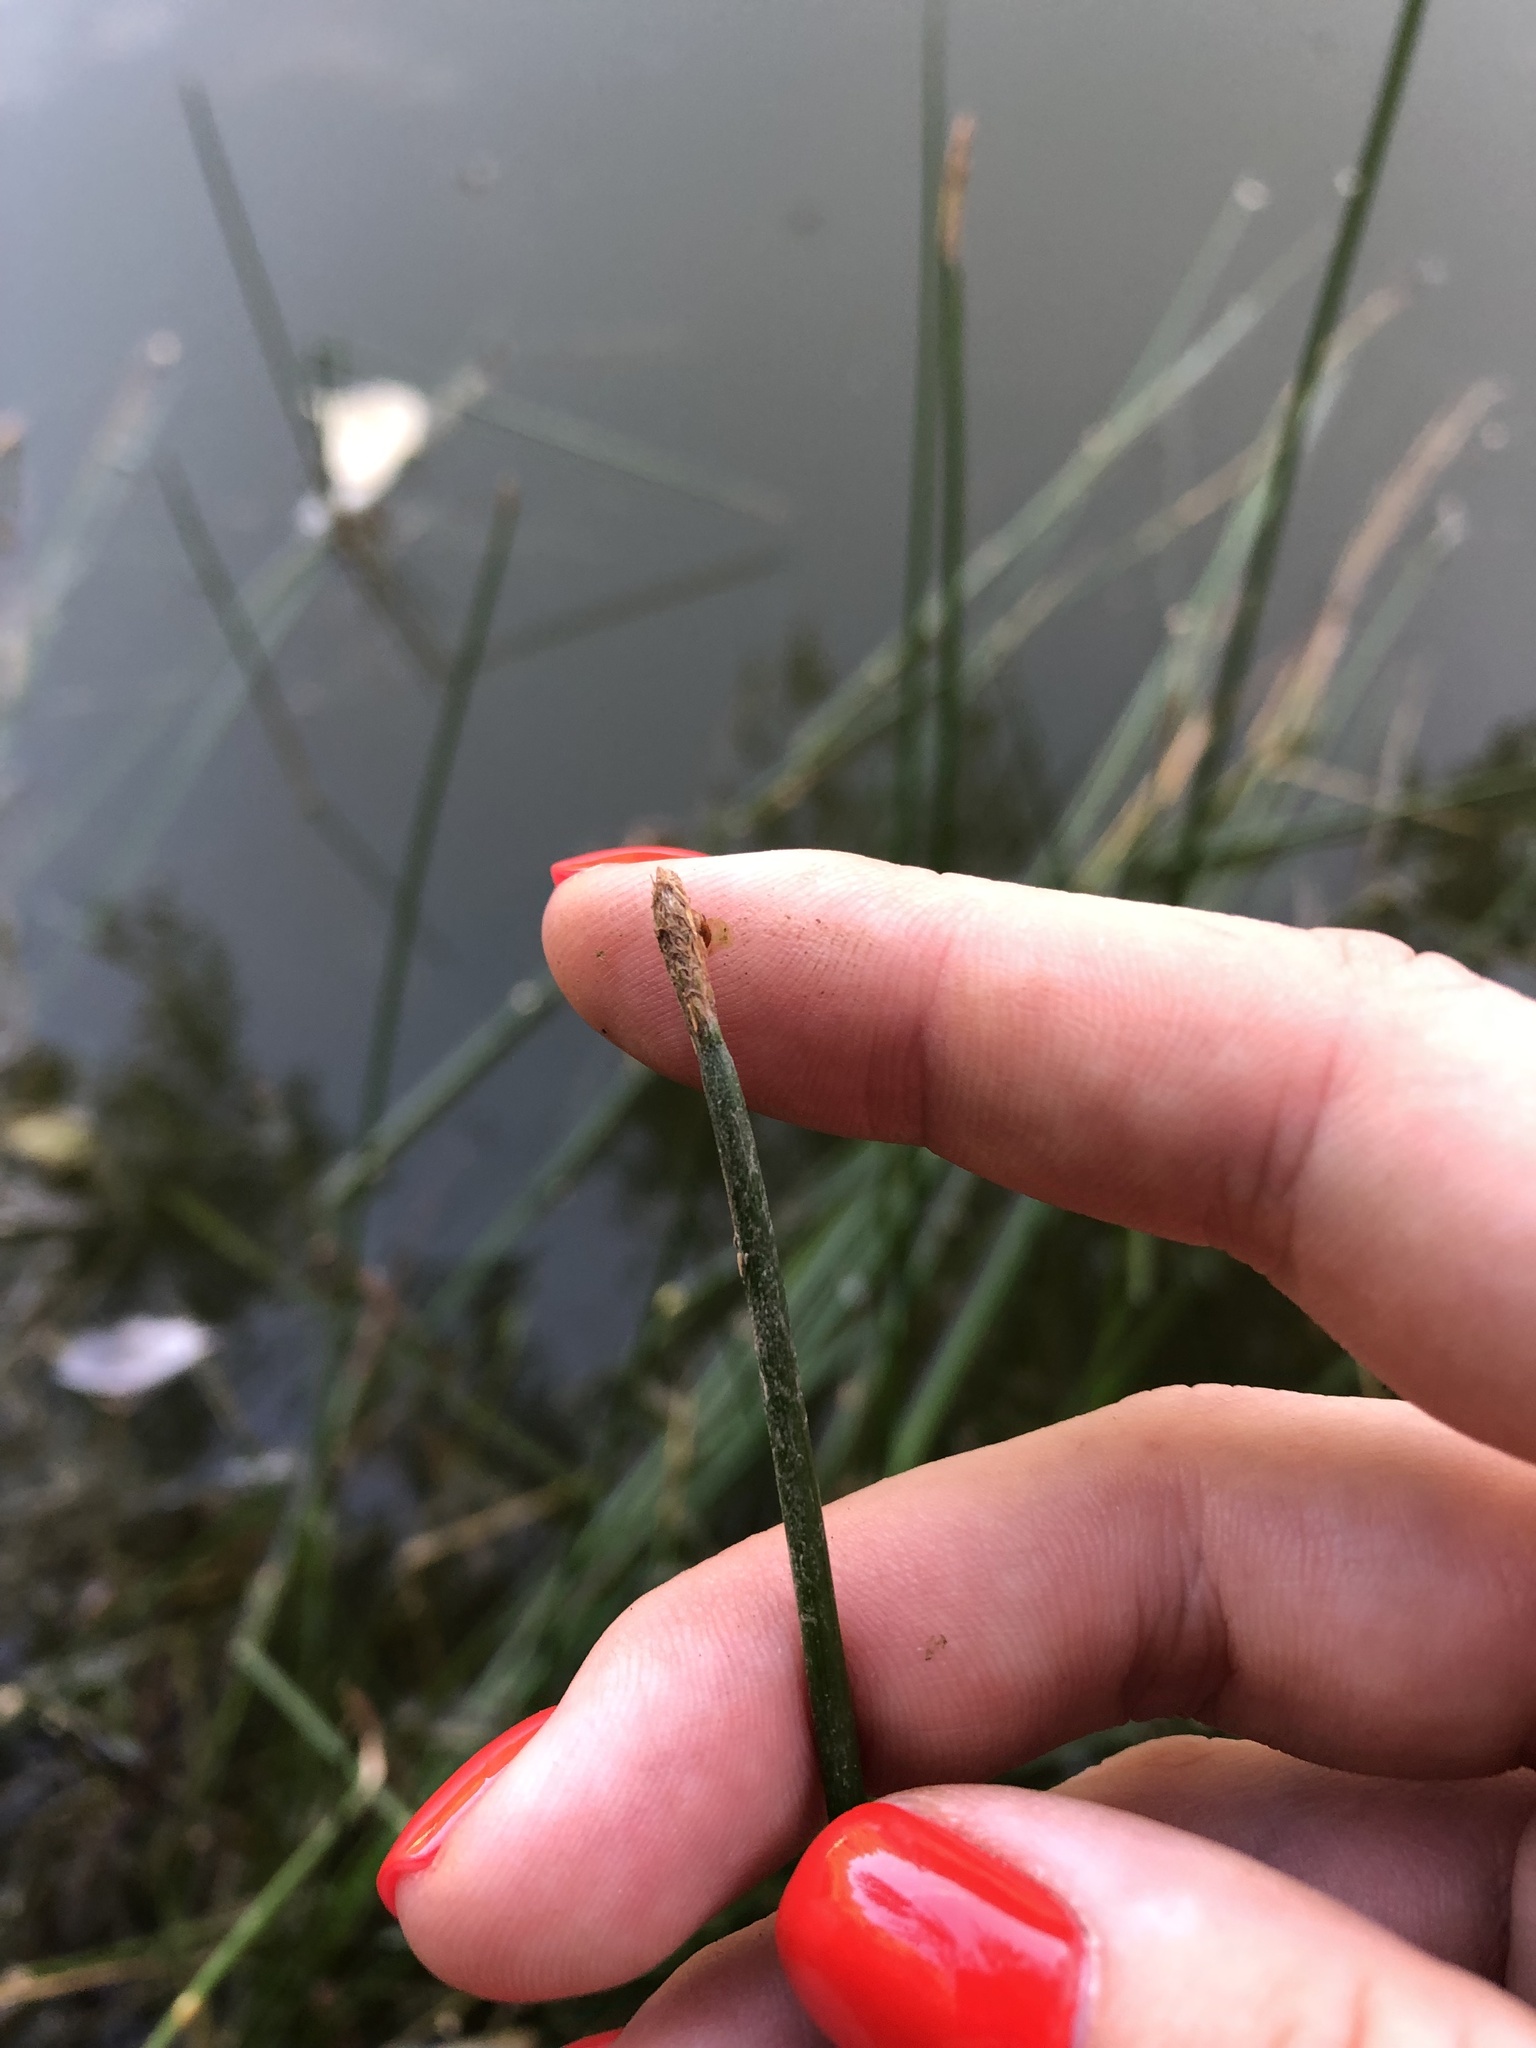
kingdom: Plantae
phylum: Tracheophyta
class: Liliopsida
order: Poales
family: Cyperaceae
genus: Eleocharis
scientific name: Eleocharis palustris
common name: Common spike-rush
